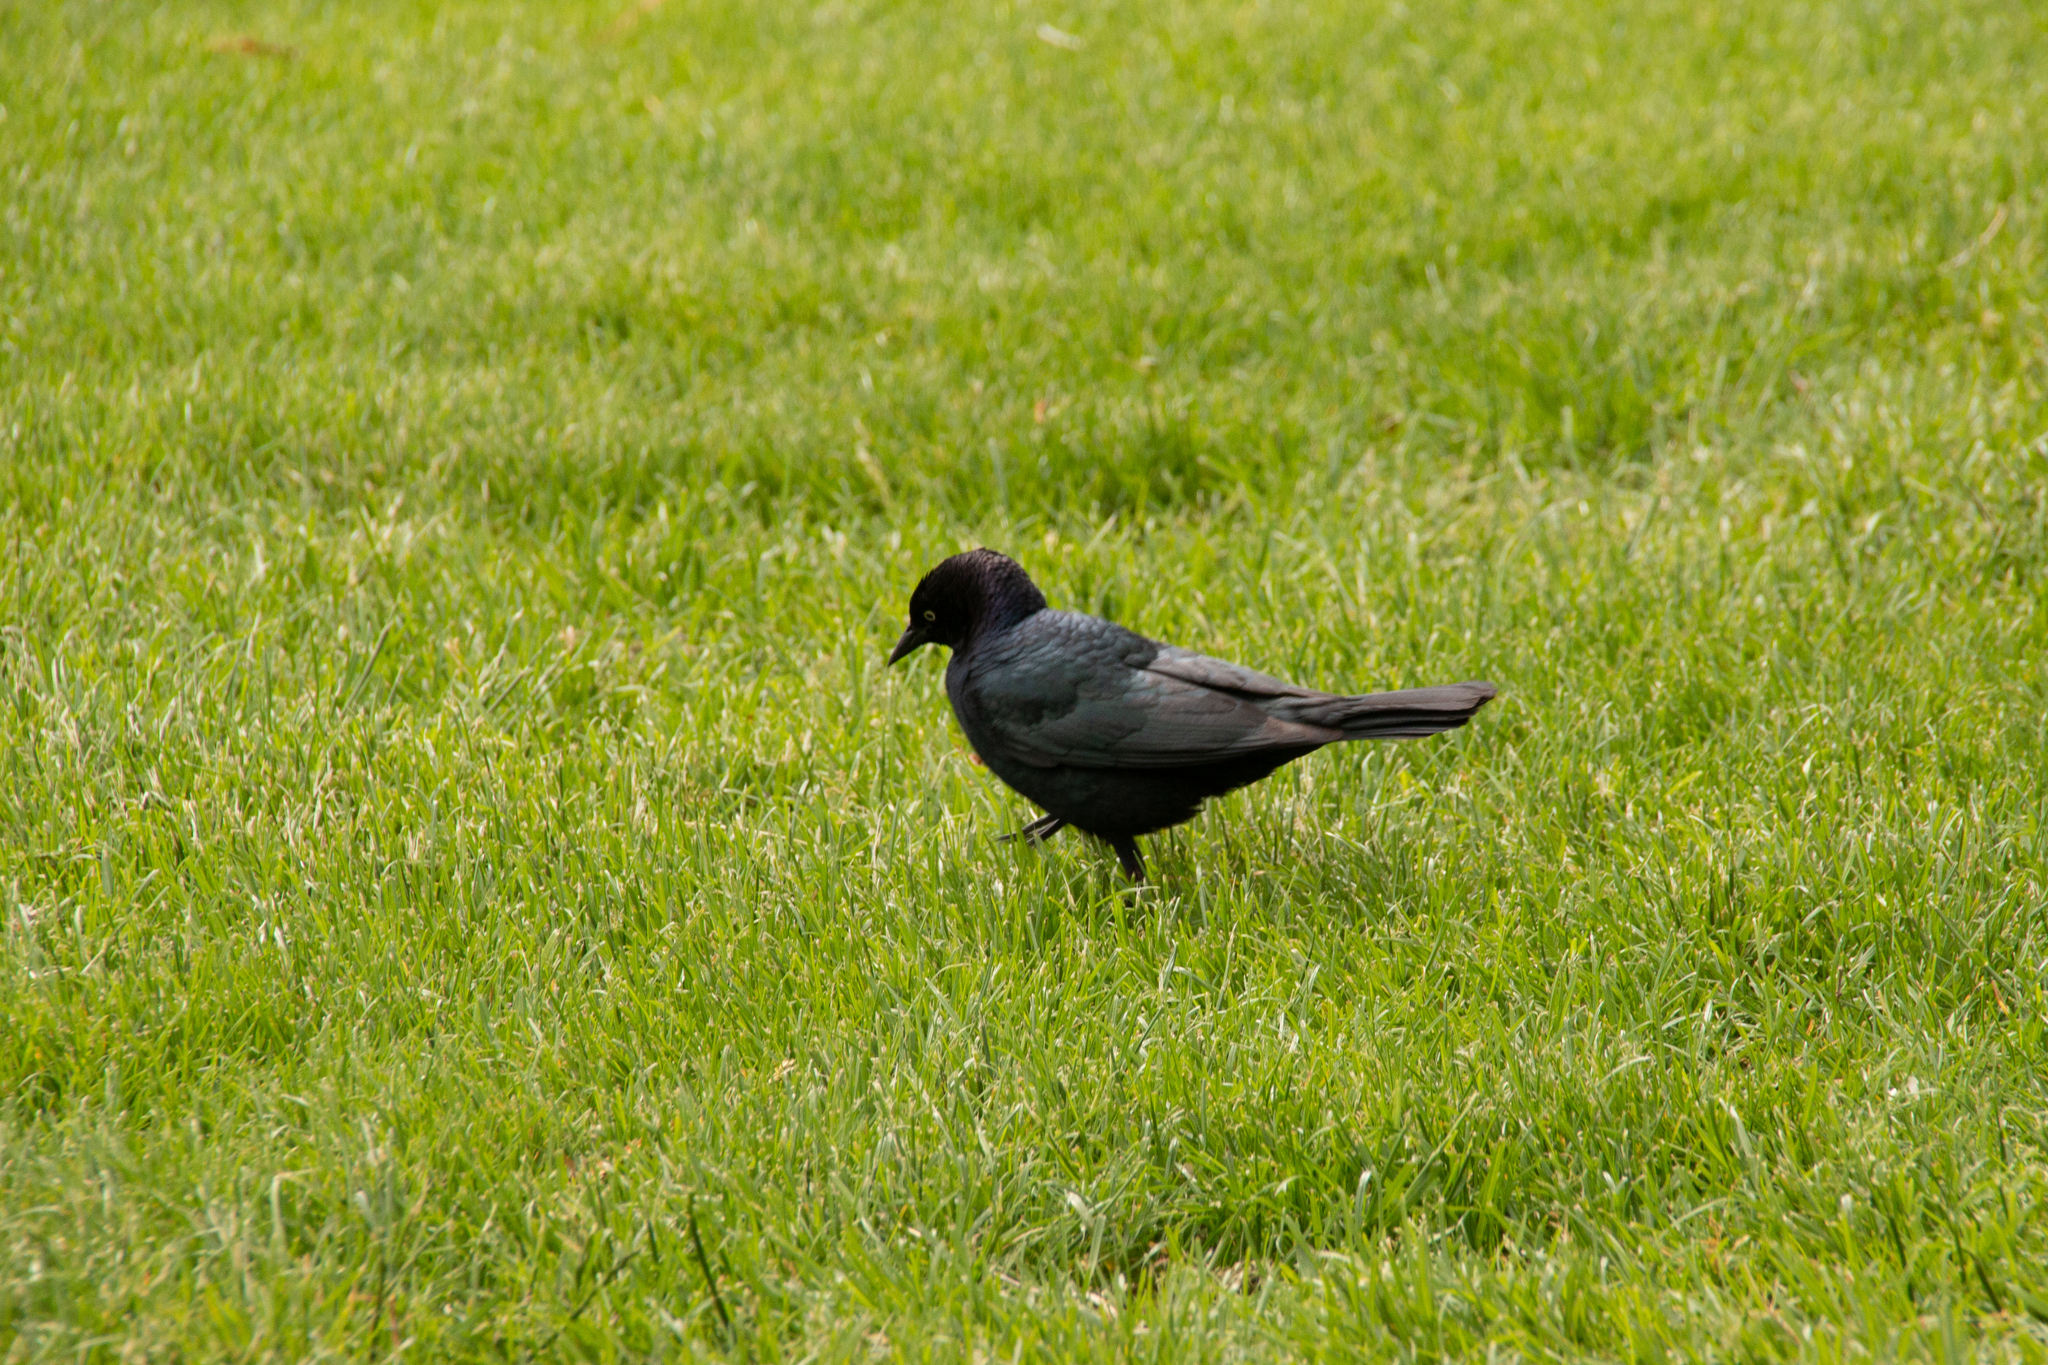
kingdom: Animalia
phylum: Chordata
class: Aves
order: Passeriformes
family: Icteridae
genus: Euphagus
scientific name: Euphagus cyanocephalus
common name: Brewer's blackbird
